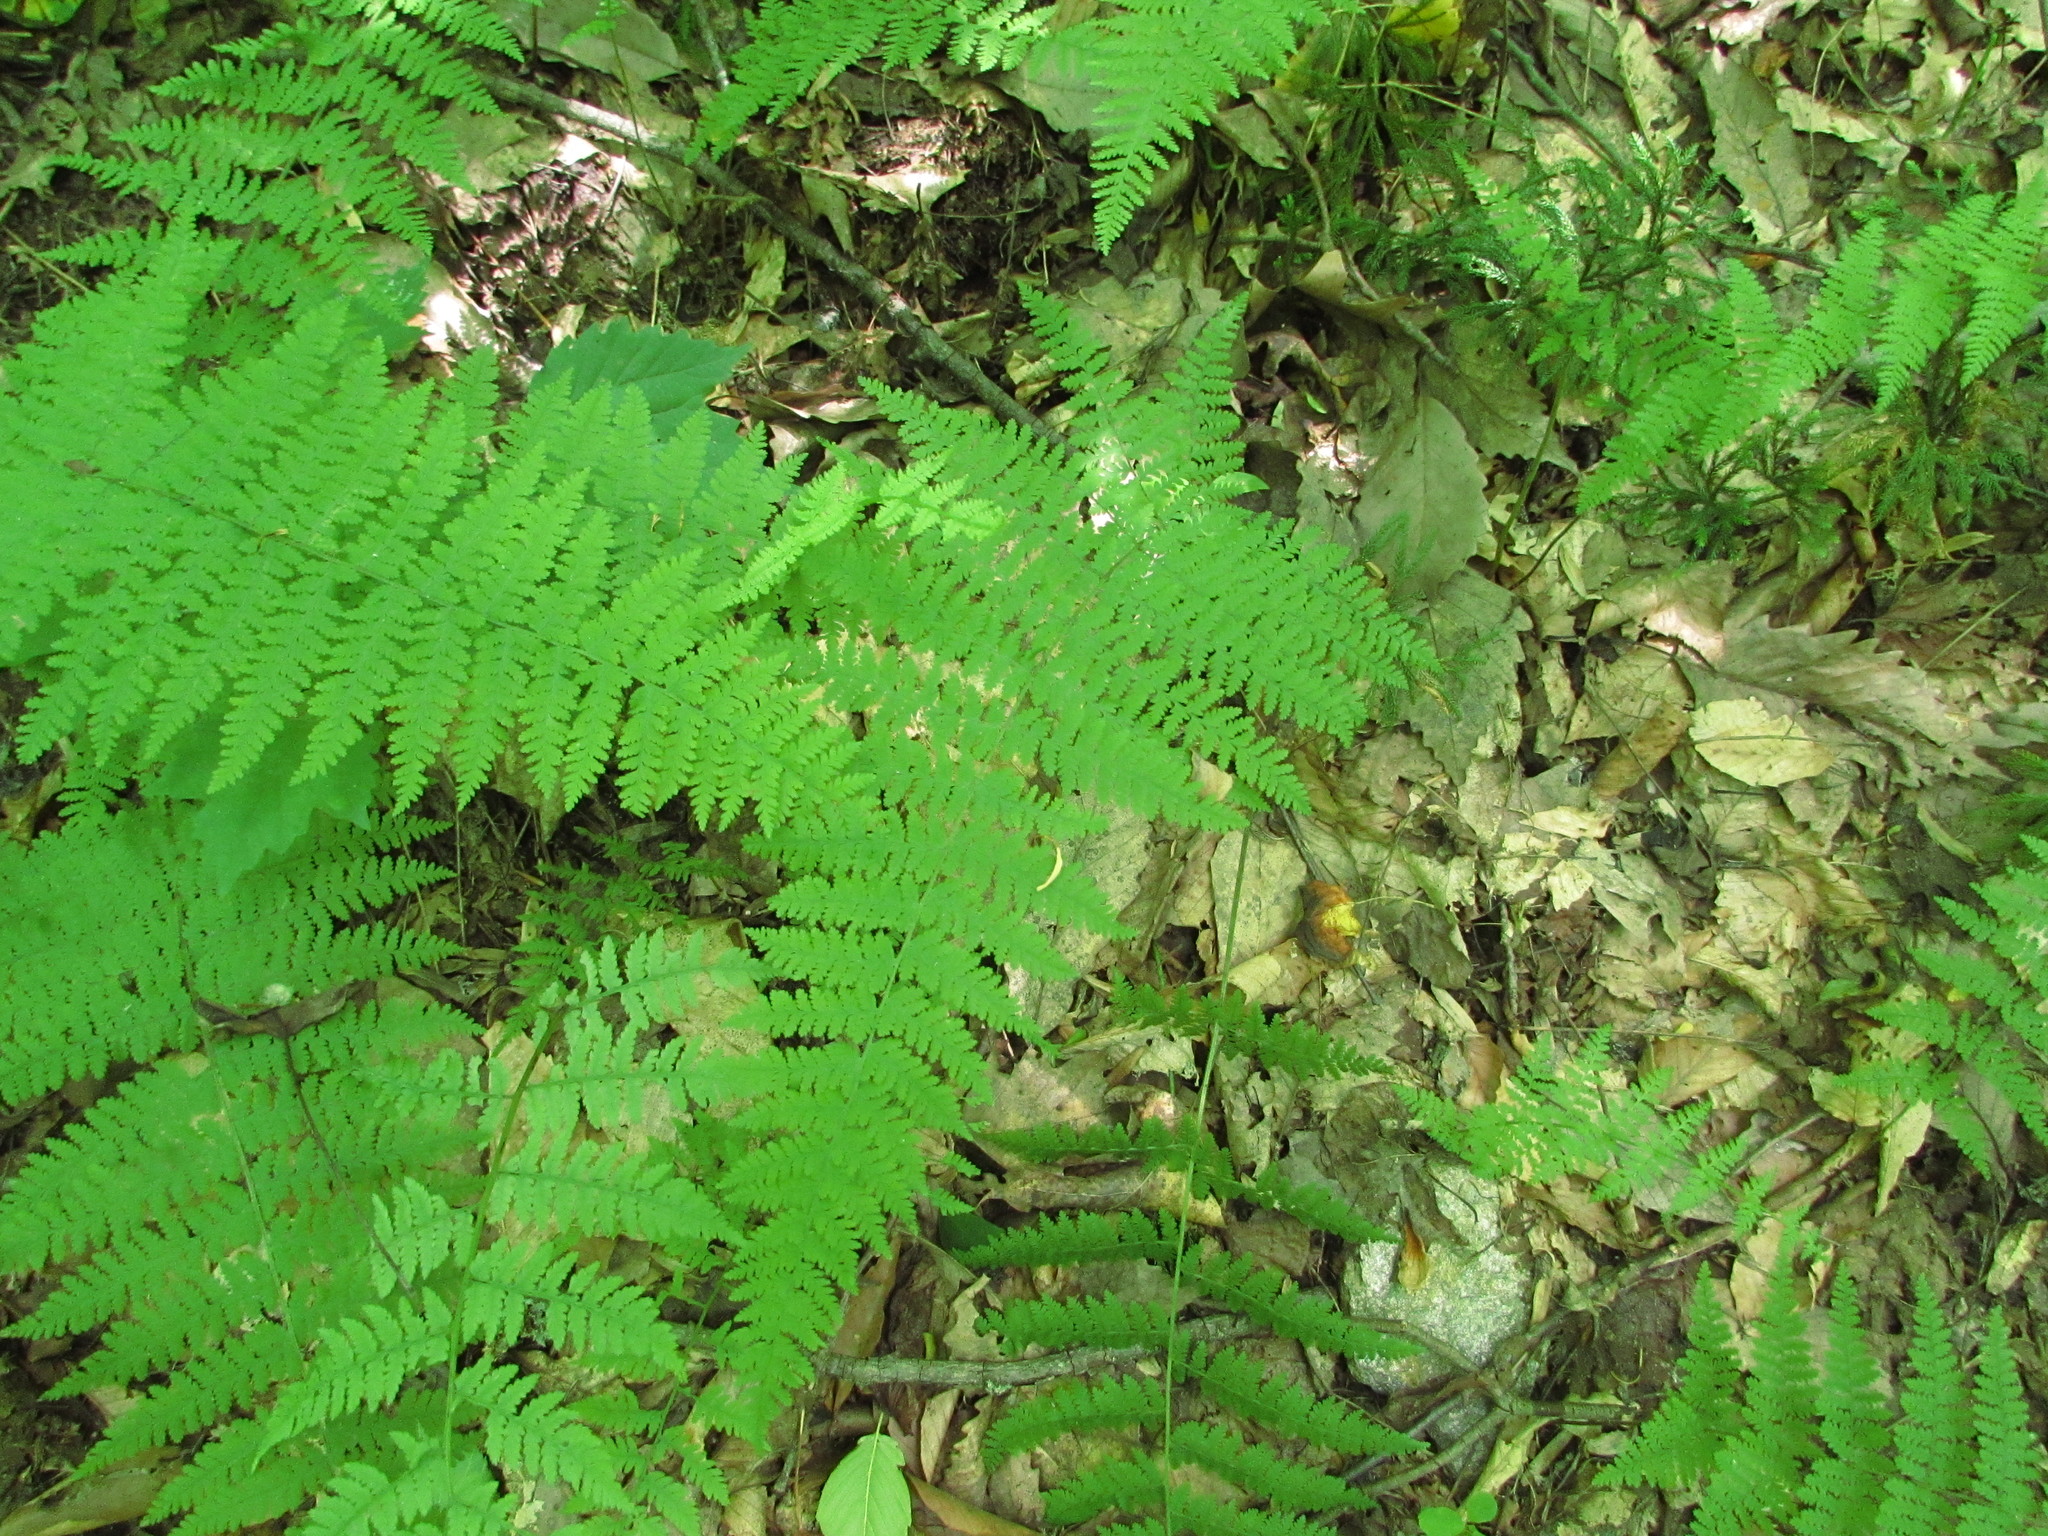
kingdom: Plantae
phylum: Tracheophyta
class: Polypodiopsida
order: Polypodiales
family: Dennstaedtiaceae
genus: Sitobolium
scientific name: Sitobolium punctilobum
